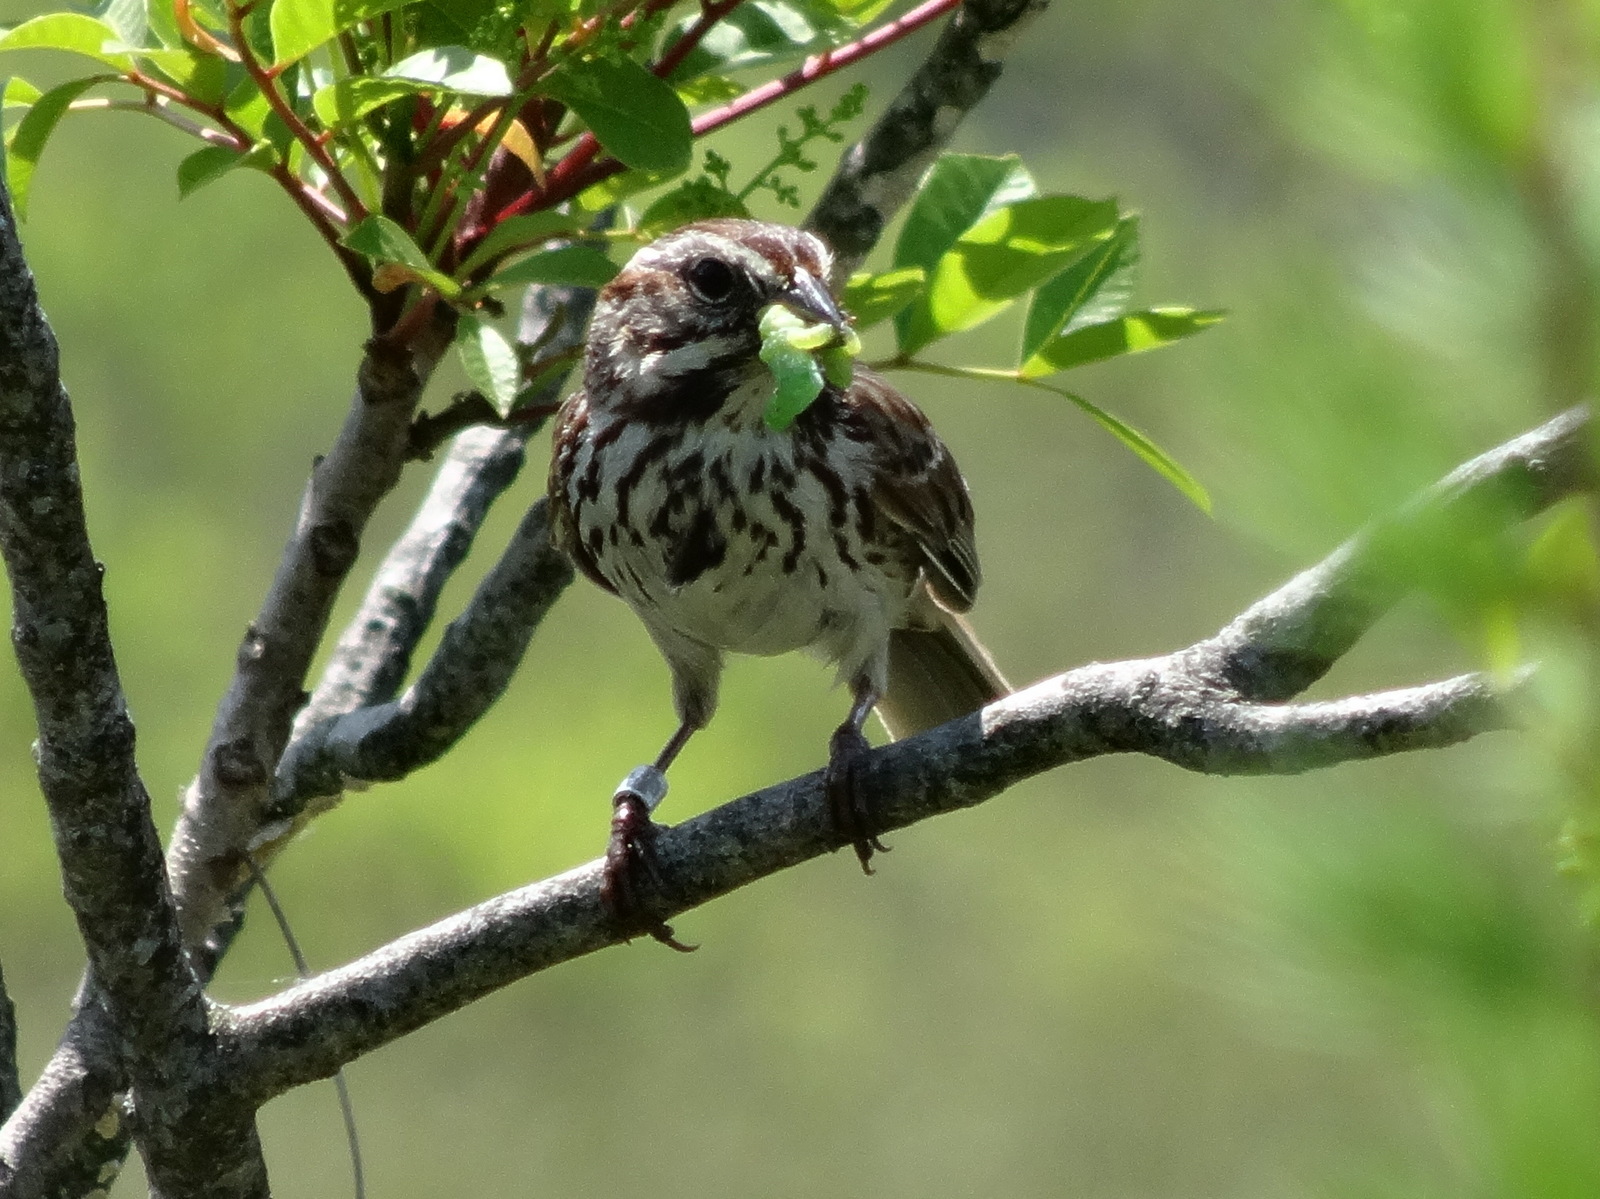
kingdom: Animalia
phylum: Chordata
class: Aves
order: Passeriformes
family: Passerellidae
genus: Melospiza
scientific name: Melospiza melodia
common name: Song sparrow
